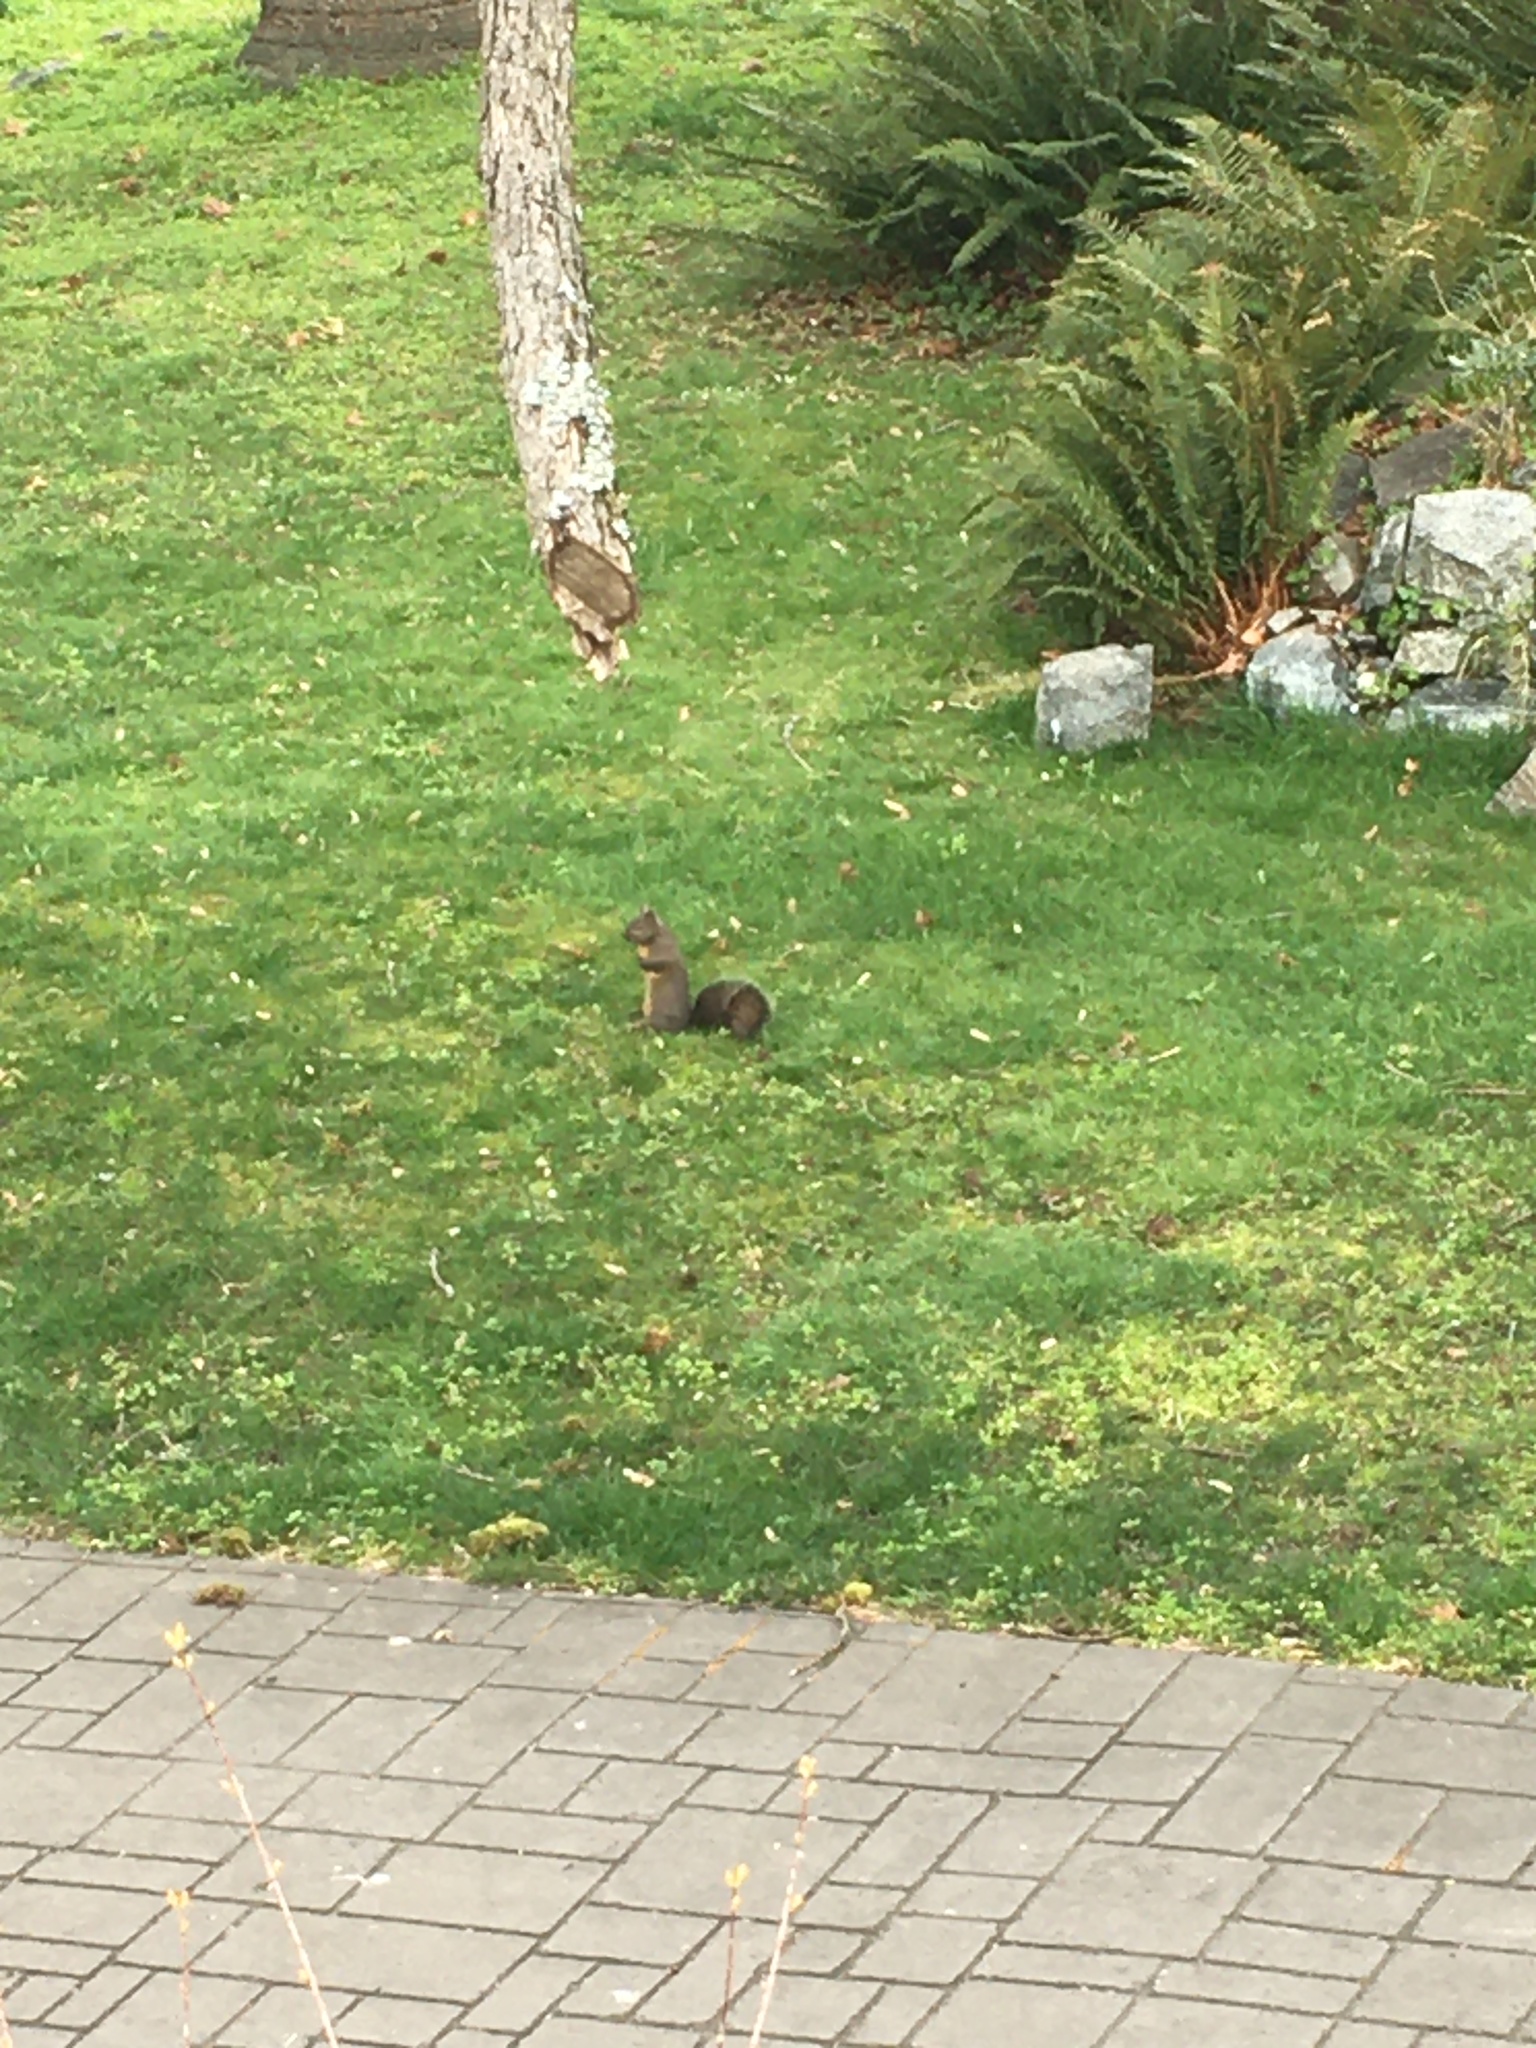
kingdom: Animalia
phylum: Chordata
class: Mammalia
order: Rodentia
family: Sciuridae
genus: Sciurus
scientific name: Sciurus carolinensis
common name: Eastern gray squirrel
